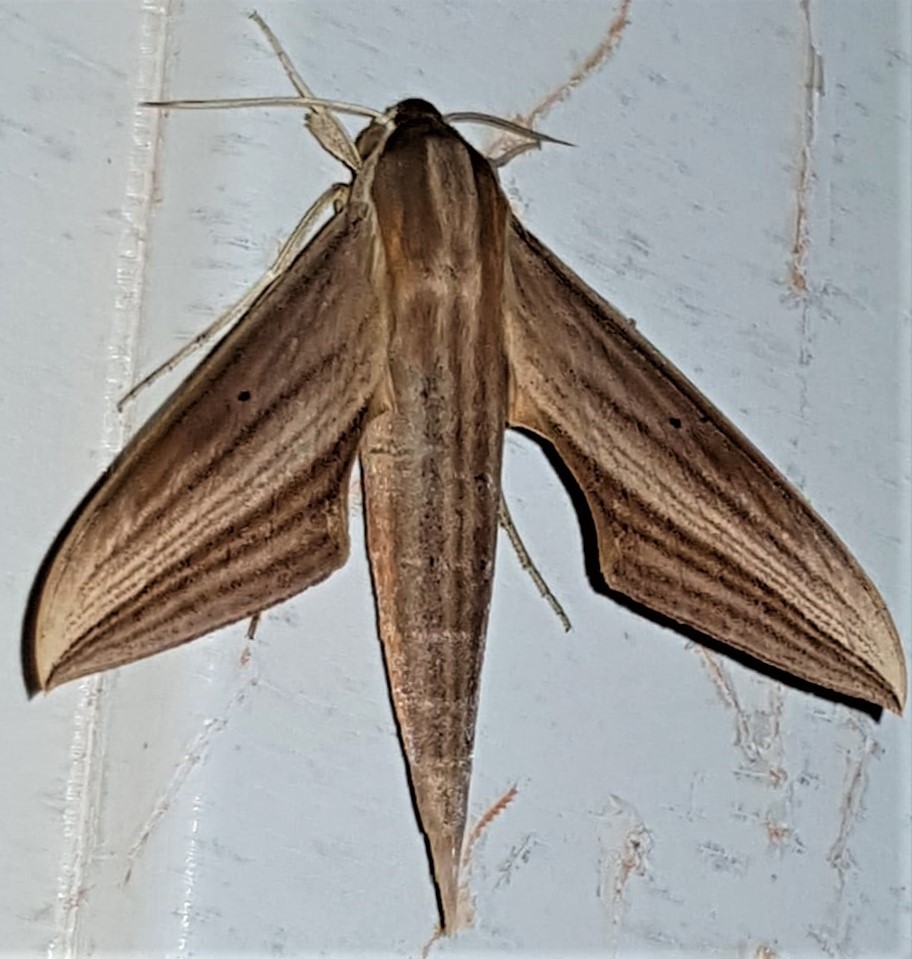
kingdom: Animalia
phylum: Arthropoda
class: Insecta
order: Lepidoptera
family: Sphingidae
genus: Xylophanes
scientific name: Xylophanes tersa
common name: Tersa sphinx
